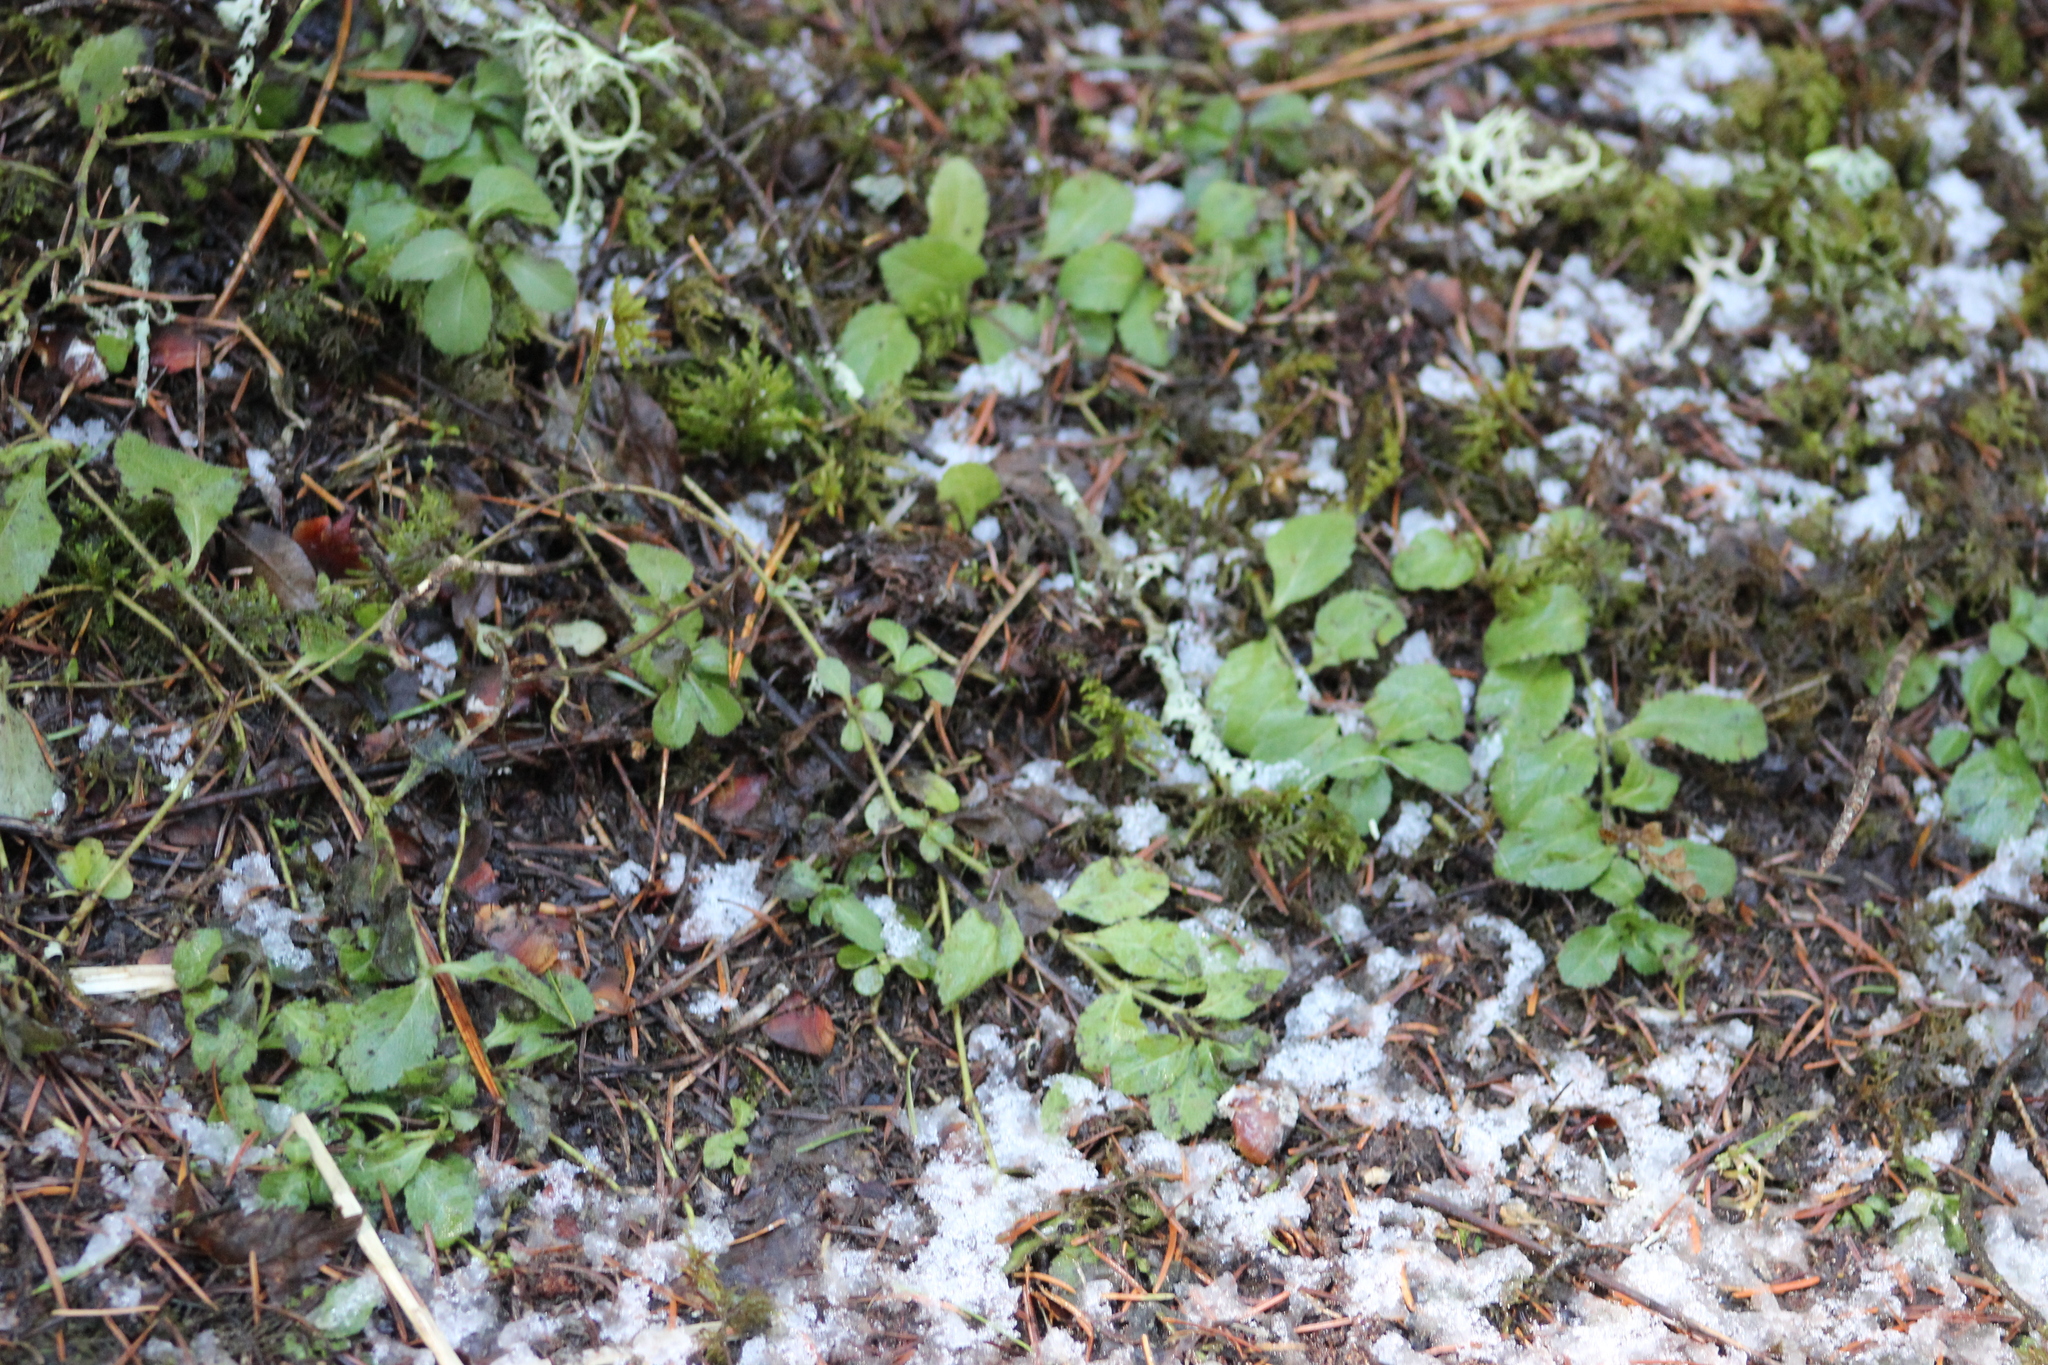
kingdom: Plantae
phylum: Tracheophyta
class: Magnoliopsida
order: Lamiales
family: Plantaginaceae
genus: Veronica
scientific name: Veronica officinalis
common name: Common speedwell
